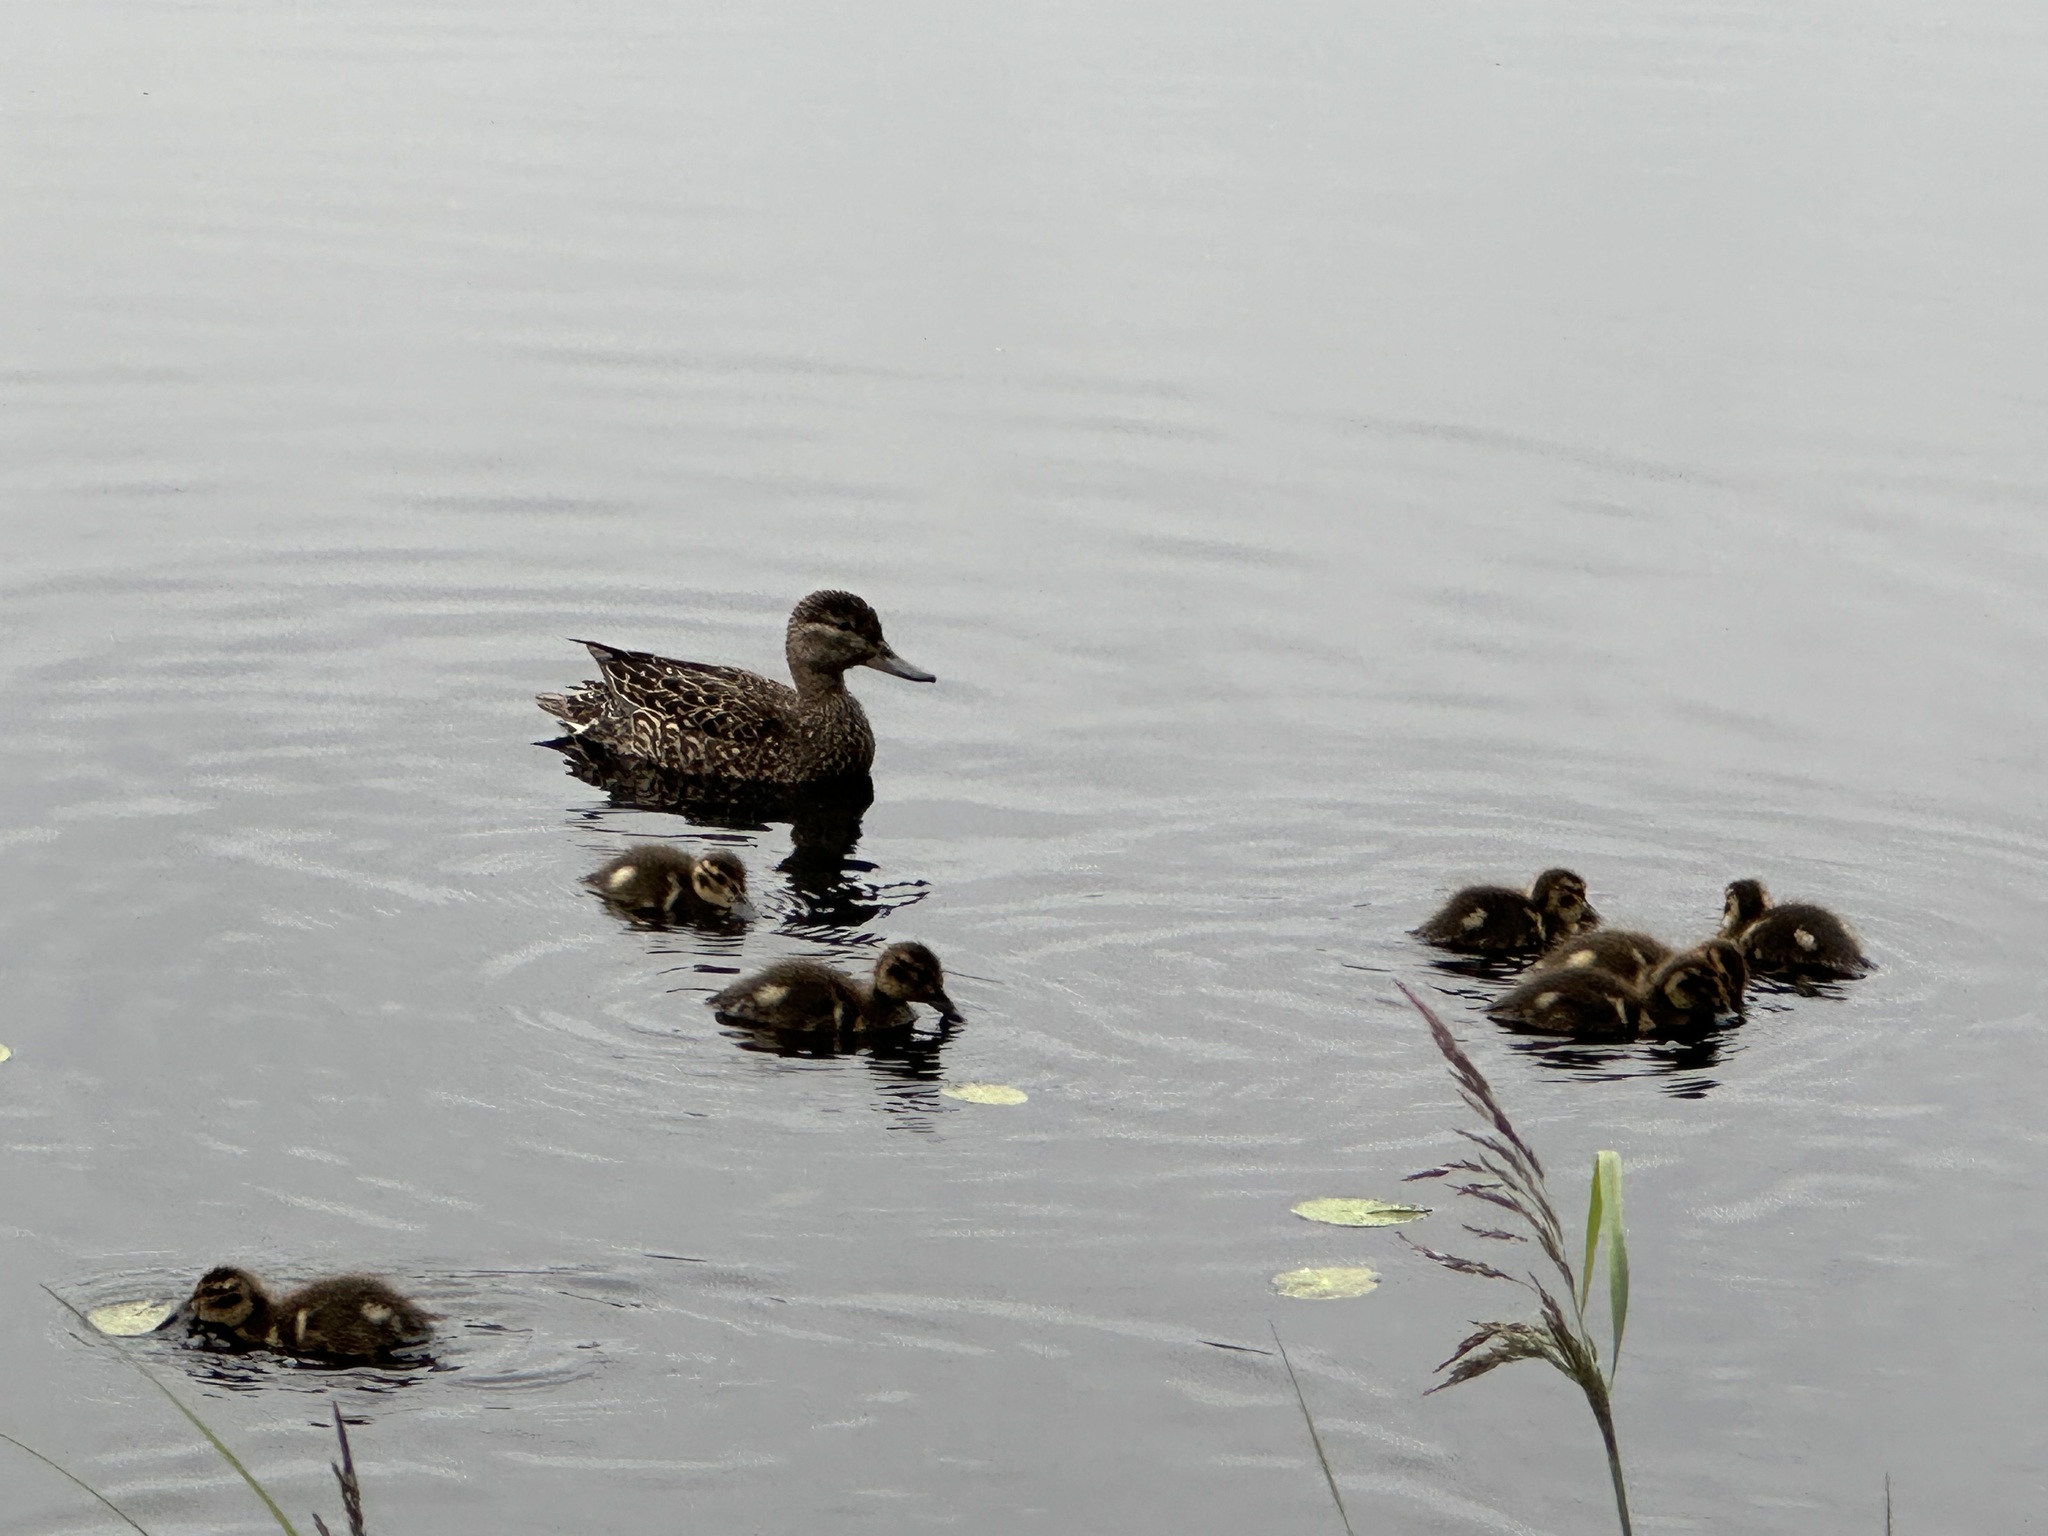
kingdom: Animalia
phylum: Chordata
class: Aves
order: Anseriformes
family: Anatidae
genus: Anas
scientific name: Anas crecca
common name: Eurasian teal
